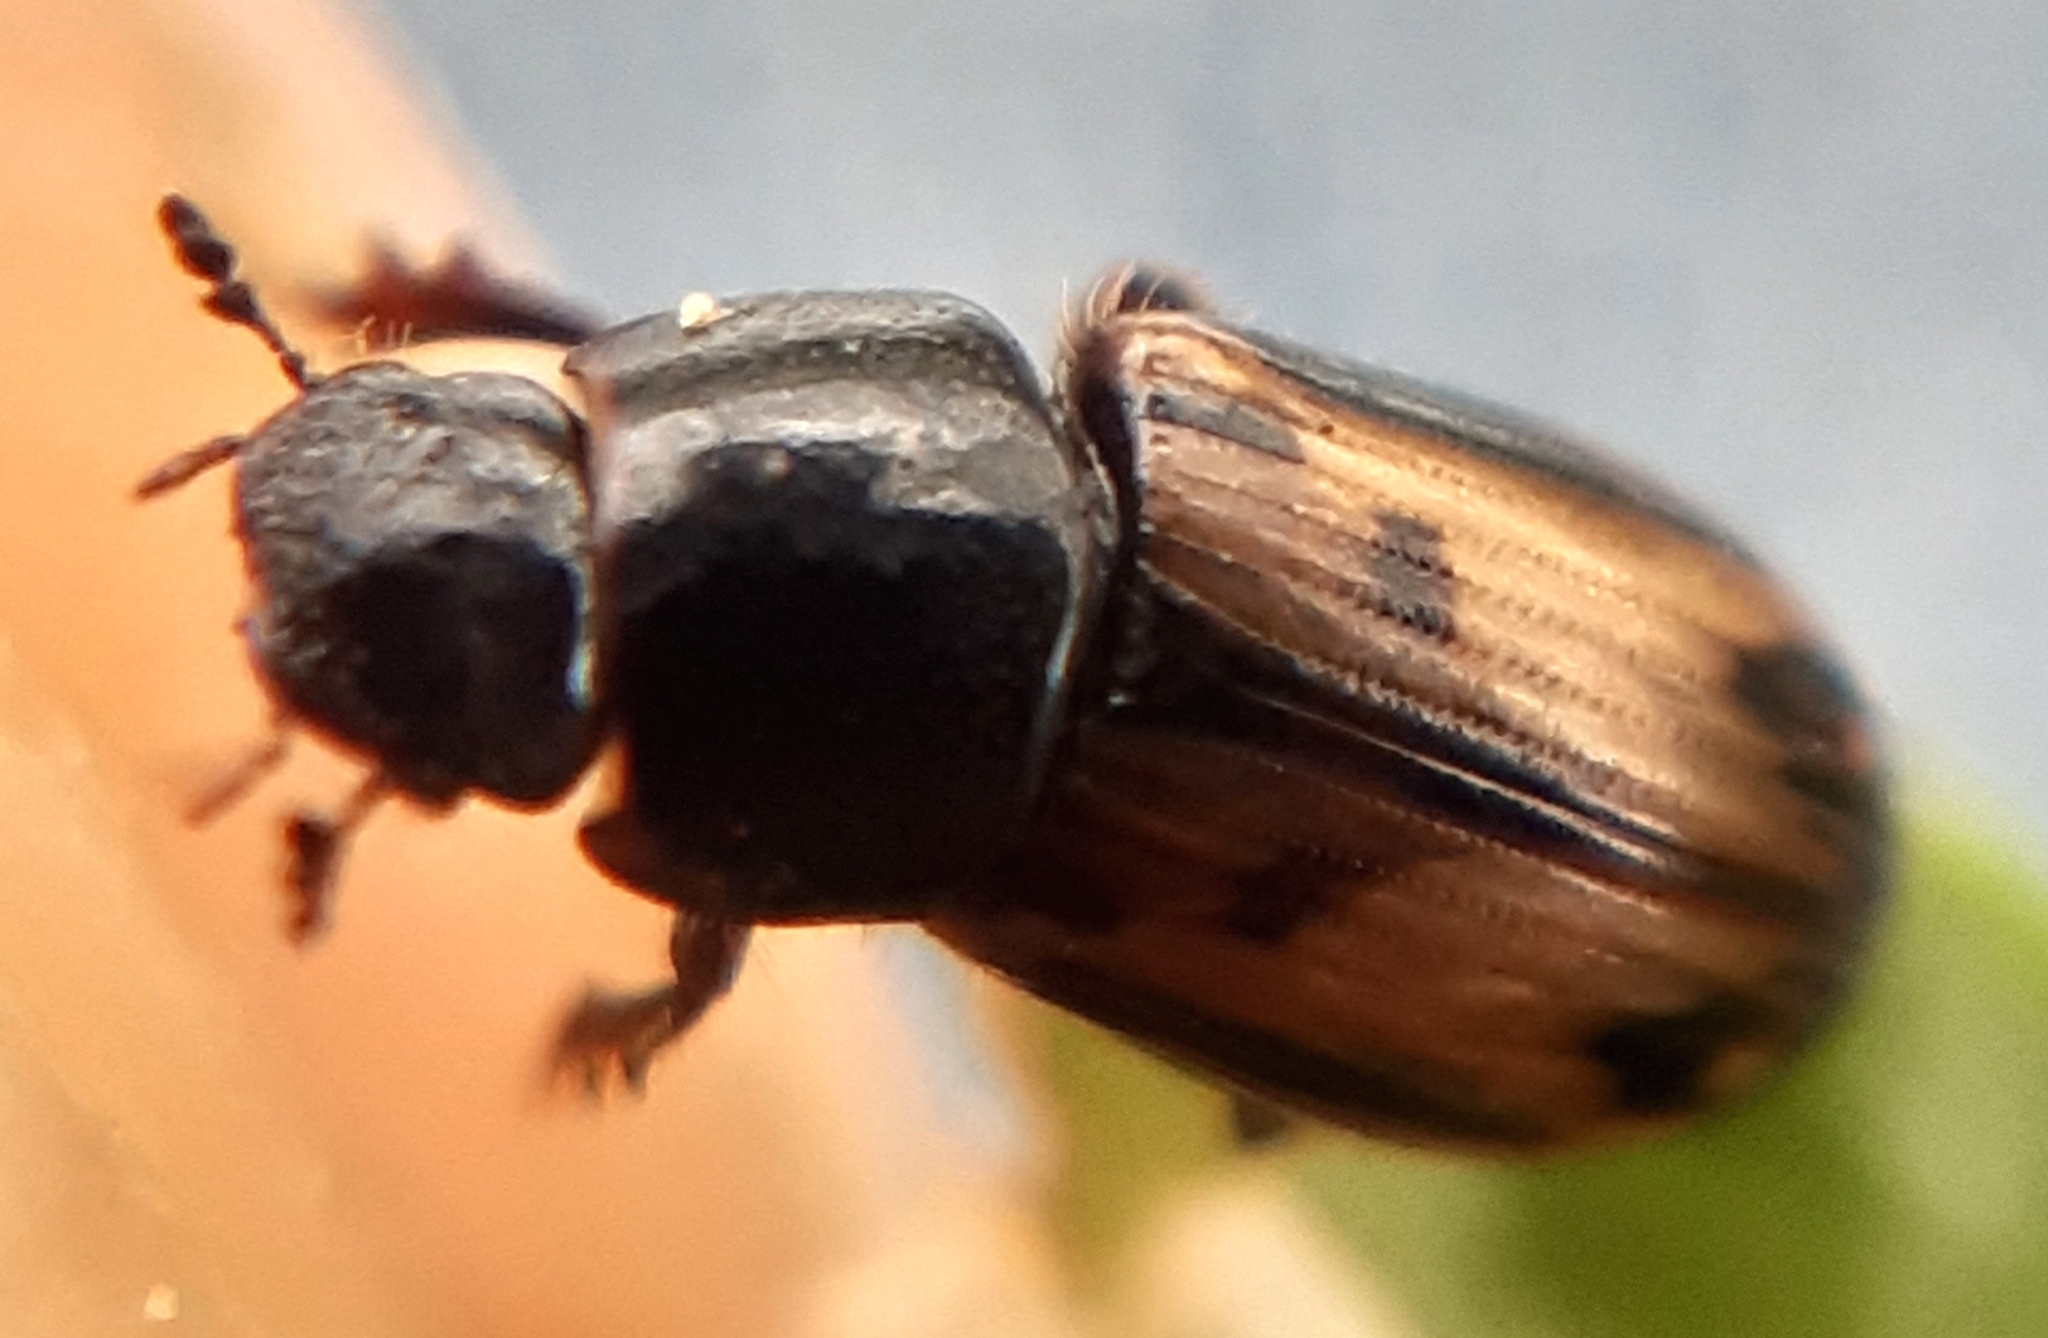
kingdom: Animalia
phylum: Arthropoda
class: Insecta
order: Coleoptera
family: Scarabaeidae
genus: Chilothorax
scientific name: Chilothorax distinctus
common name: Maculated dung beetle
